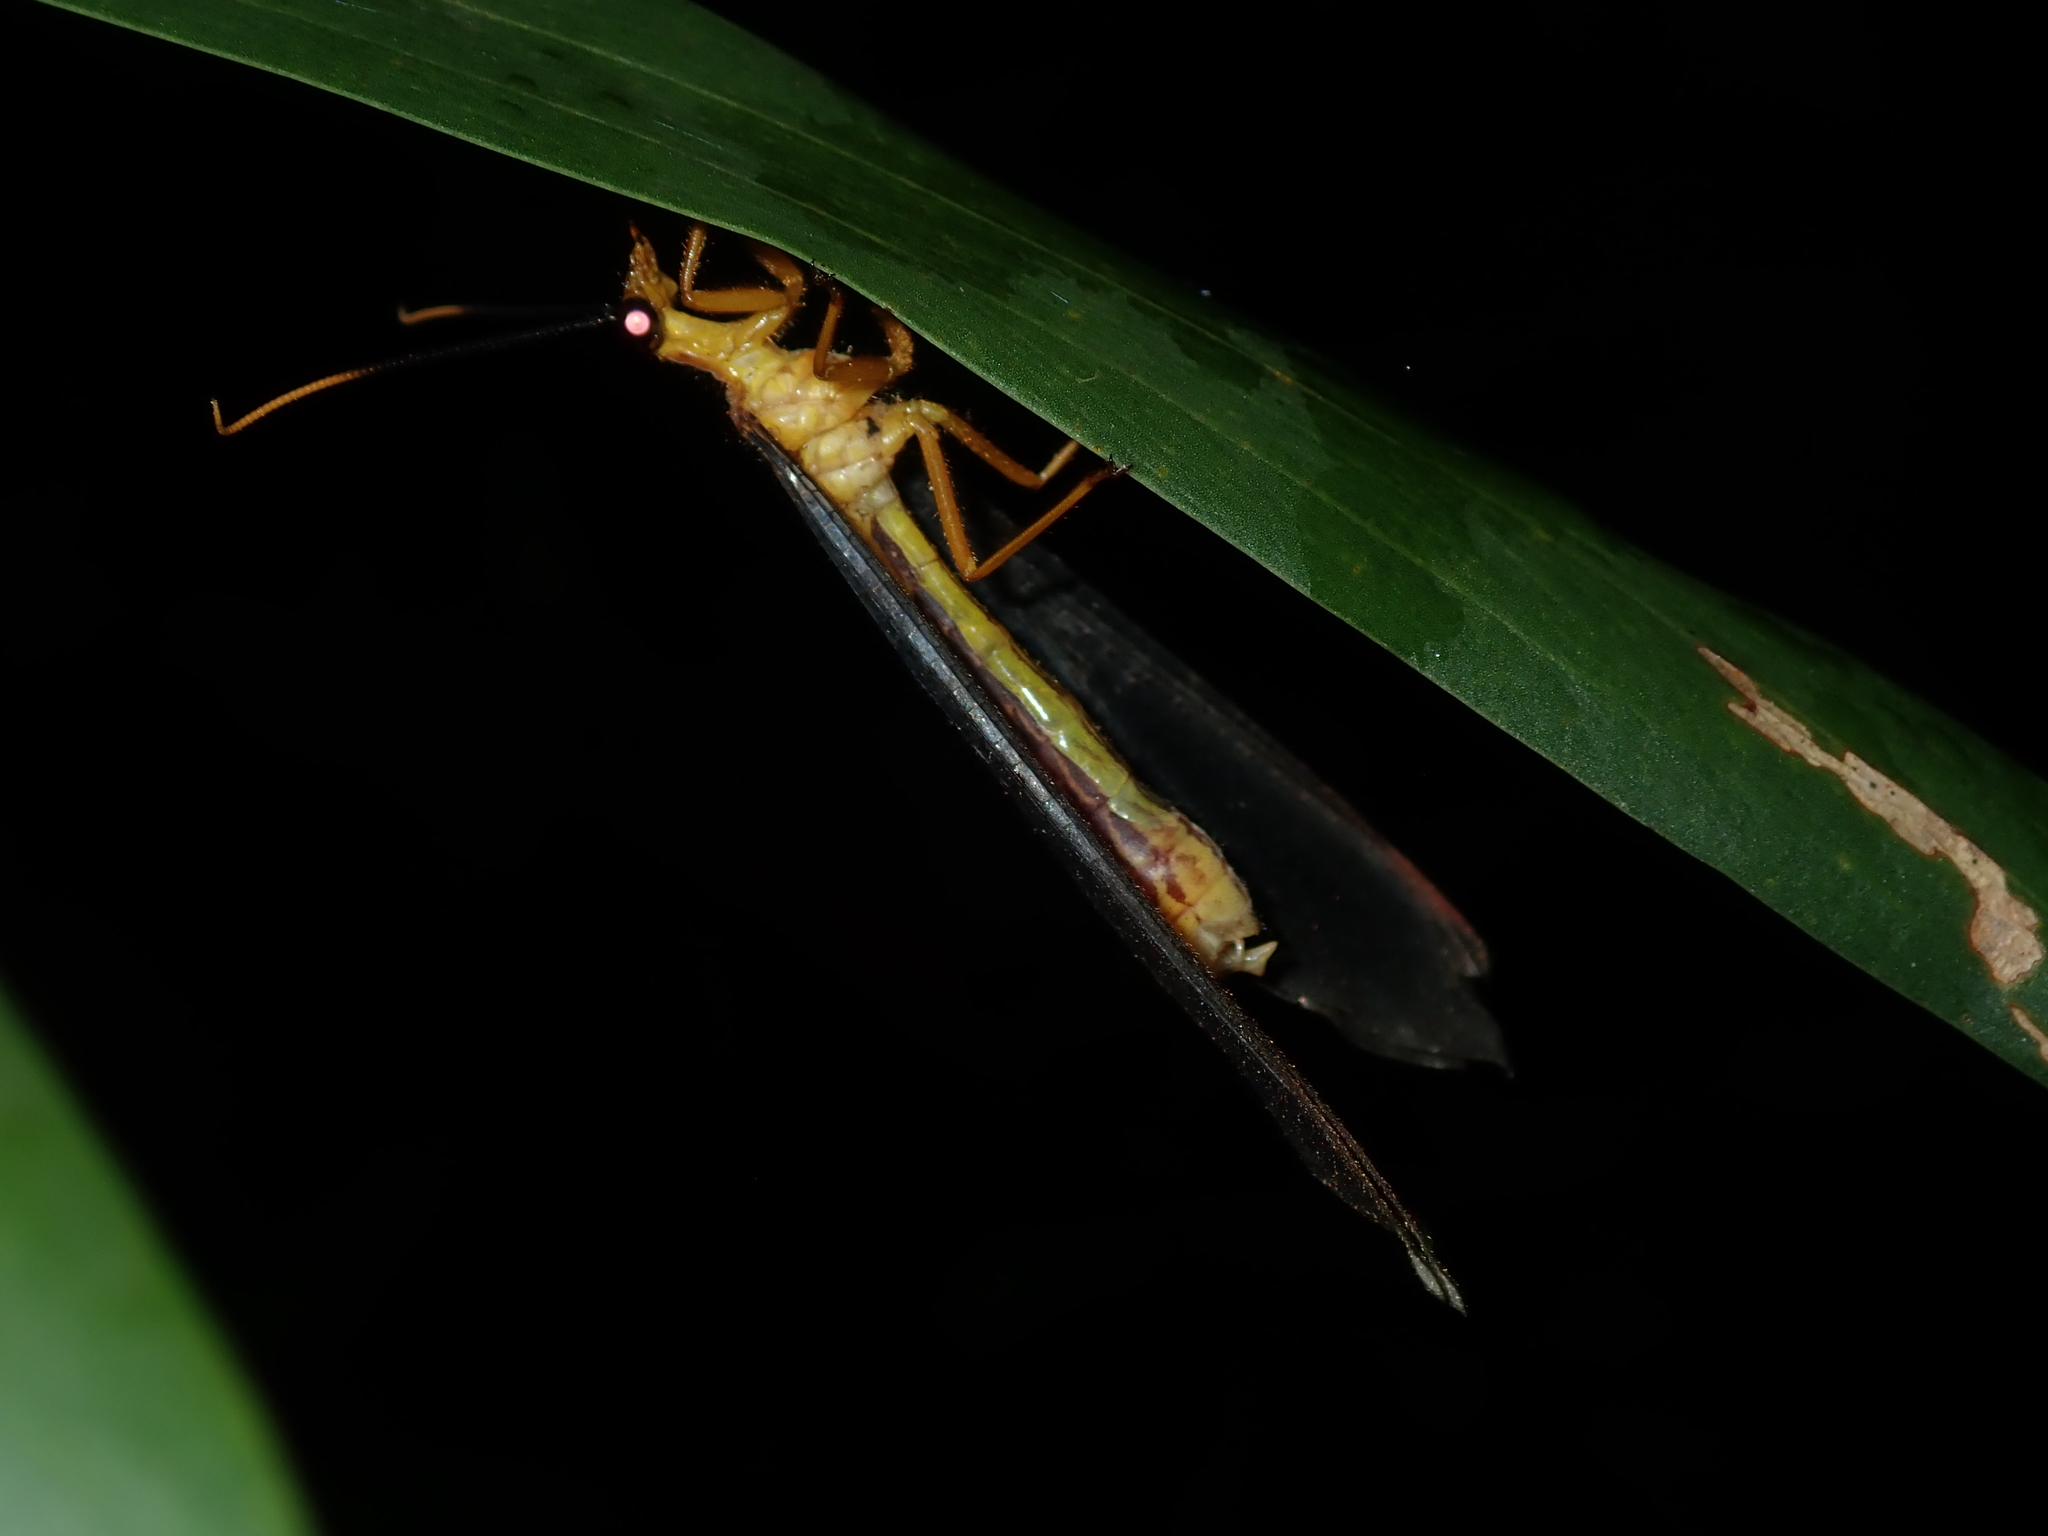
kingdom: Animalia
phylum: Arthropoda
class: Insecta
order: Neuroptera
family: Nymphidae
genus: Nymphes
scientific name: Nymphes myrmeleonoides
